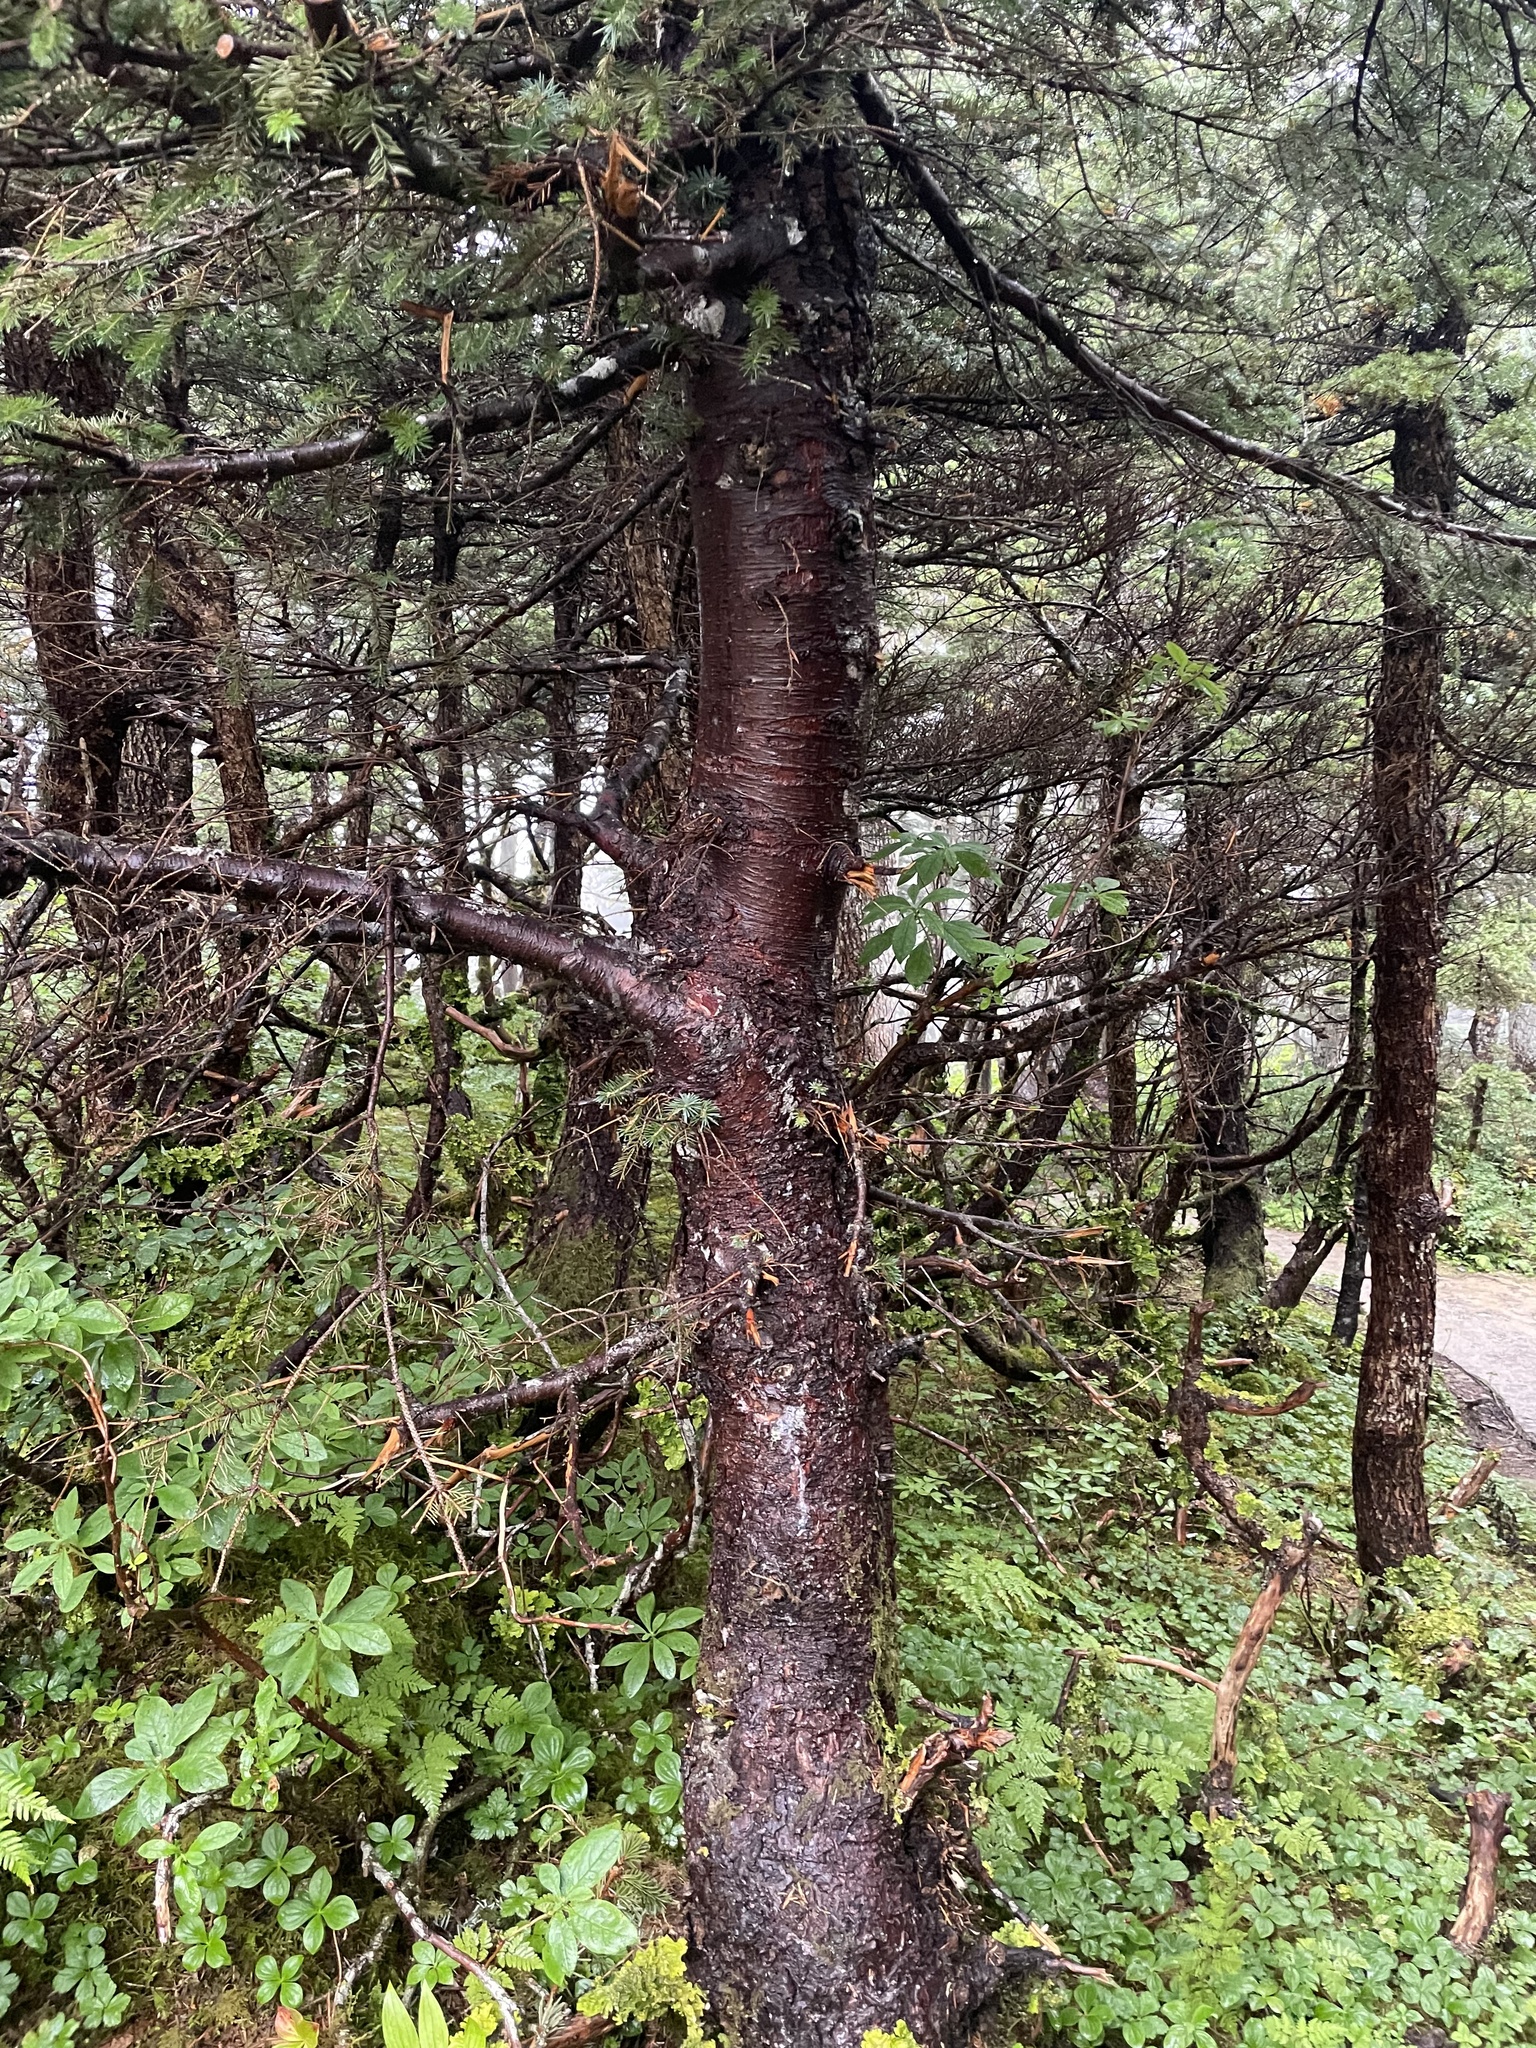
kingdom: Plantae
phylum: Tracheophyta
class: Pinopsida
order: Pinales
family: Pinaceae
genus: Picea
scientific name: Picea sitchensis
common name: Sitka spruce
